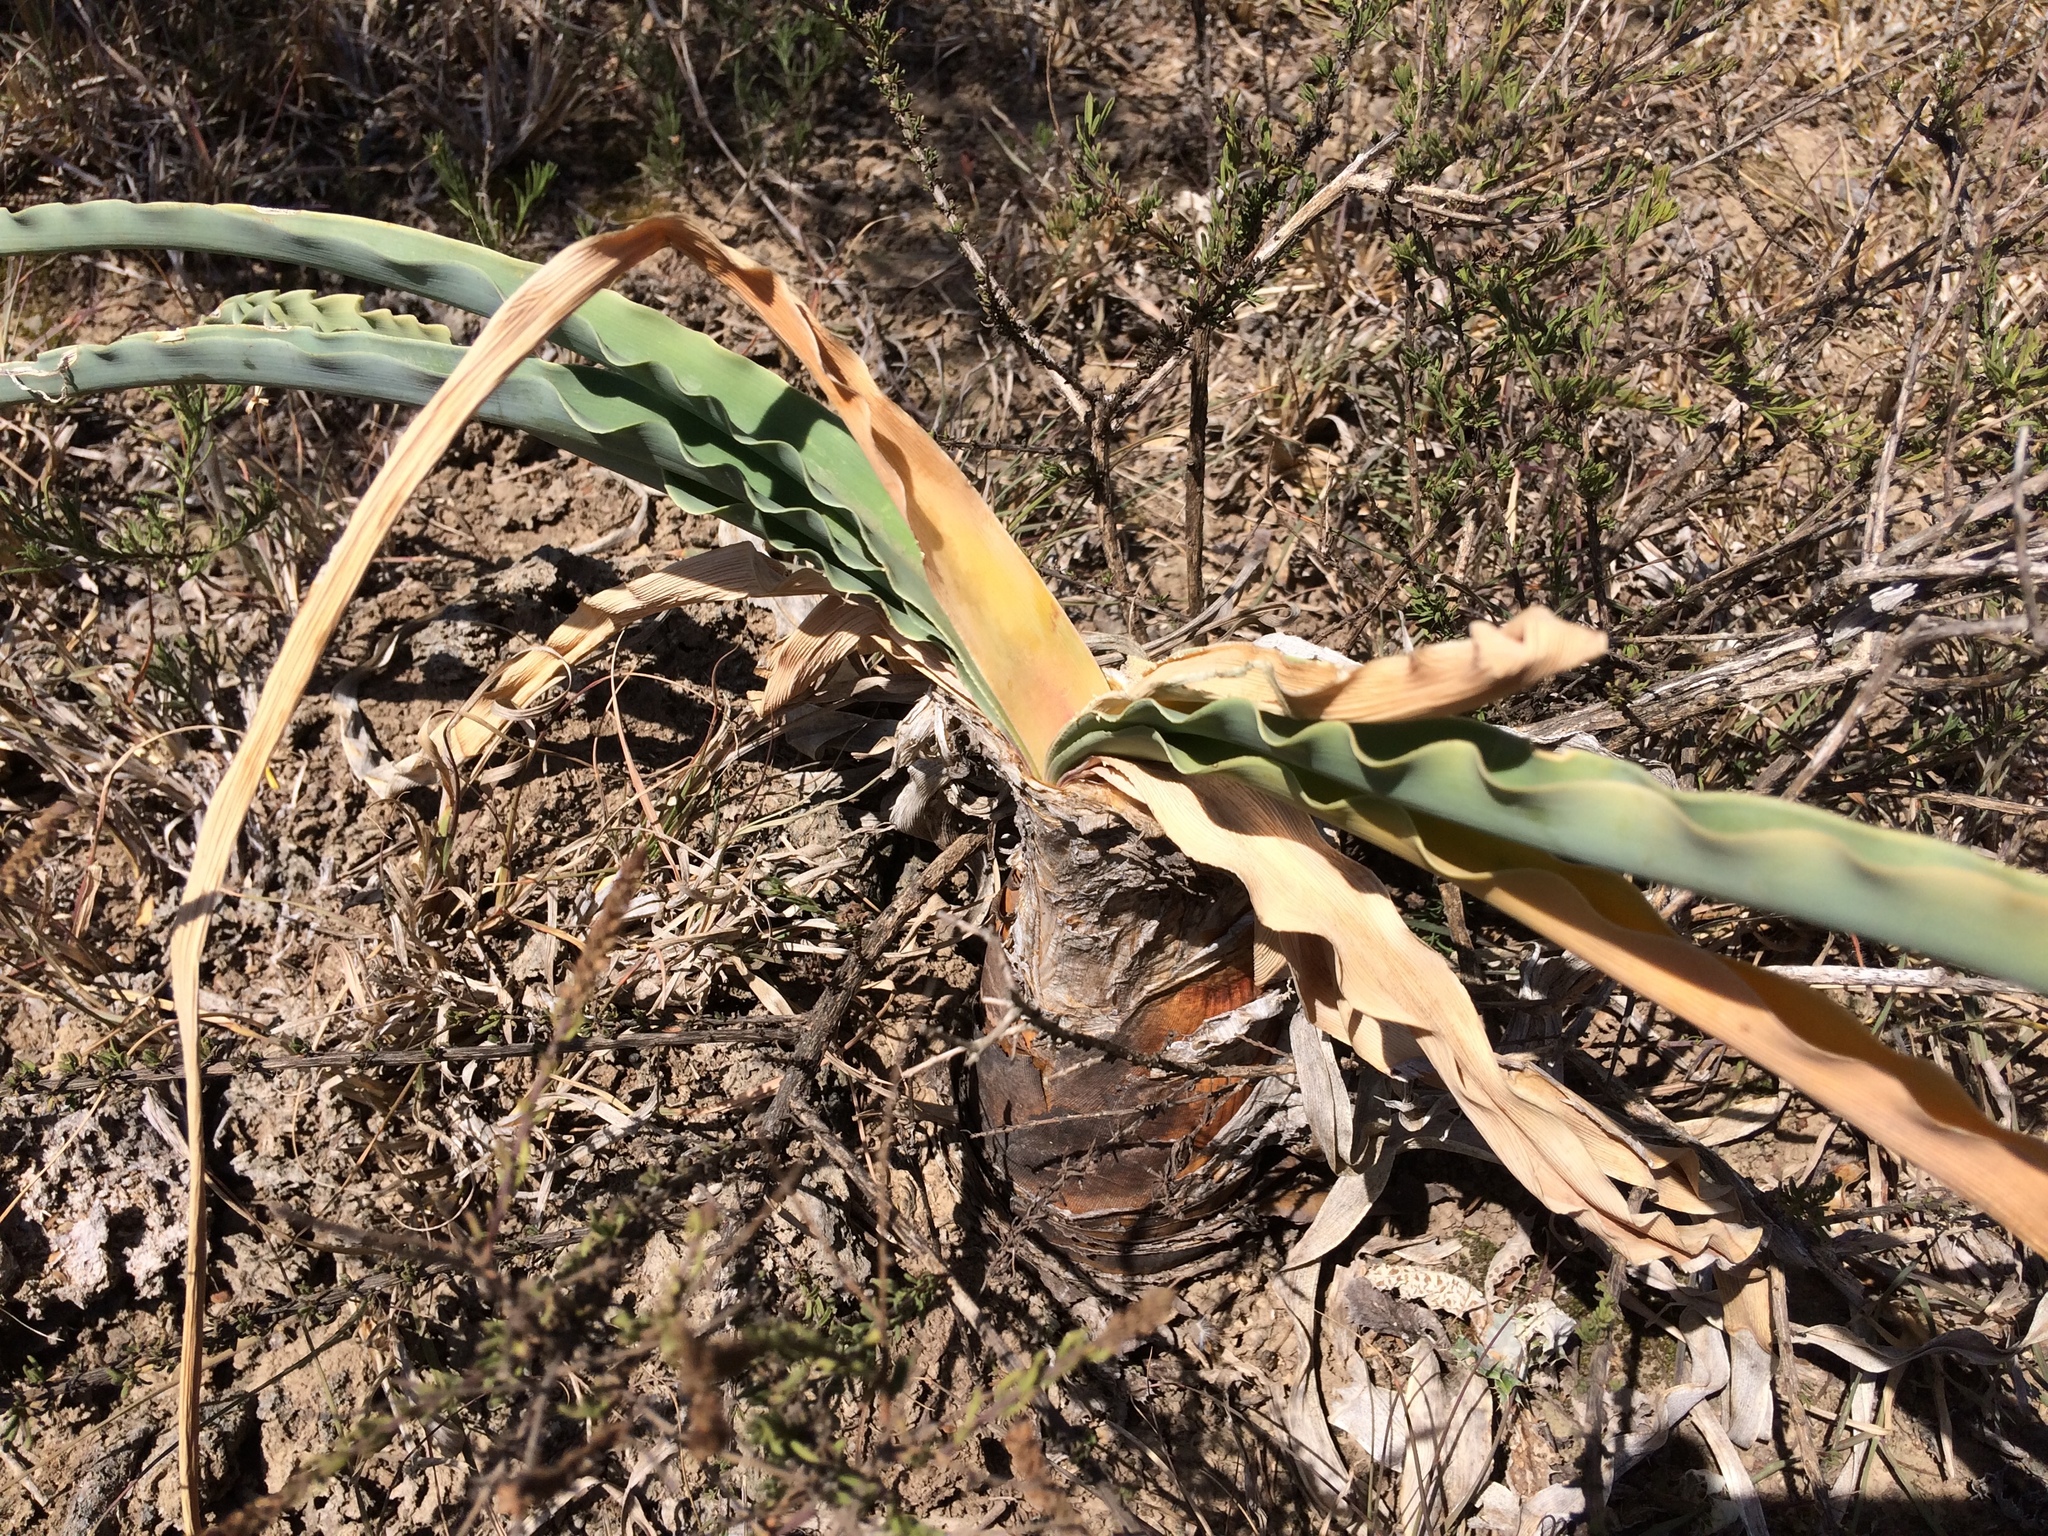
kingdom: Plantae
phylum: Tracheophyta
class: Liliopsida
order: Asparagales
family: Amaryllidaceae
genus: Boophone
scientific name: Boophone disticha
